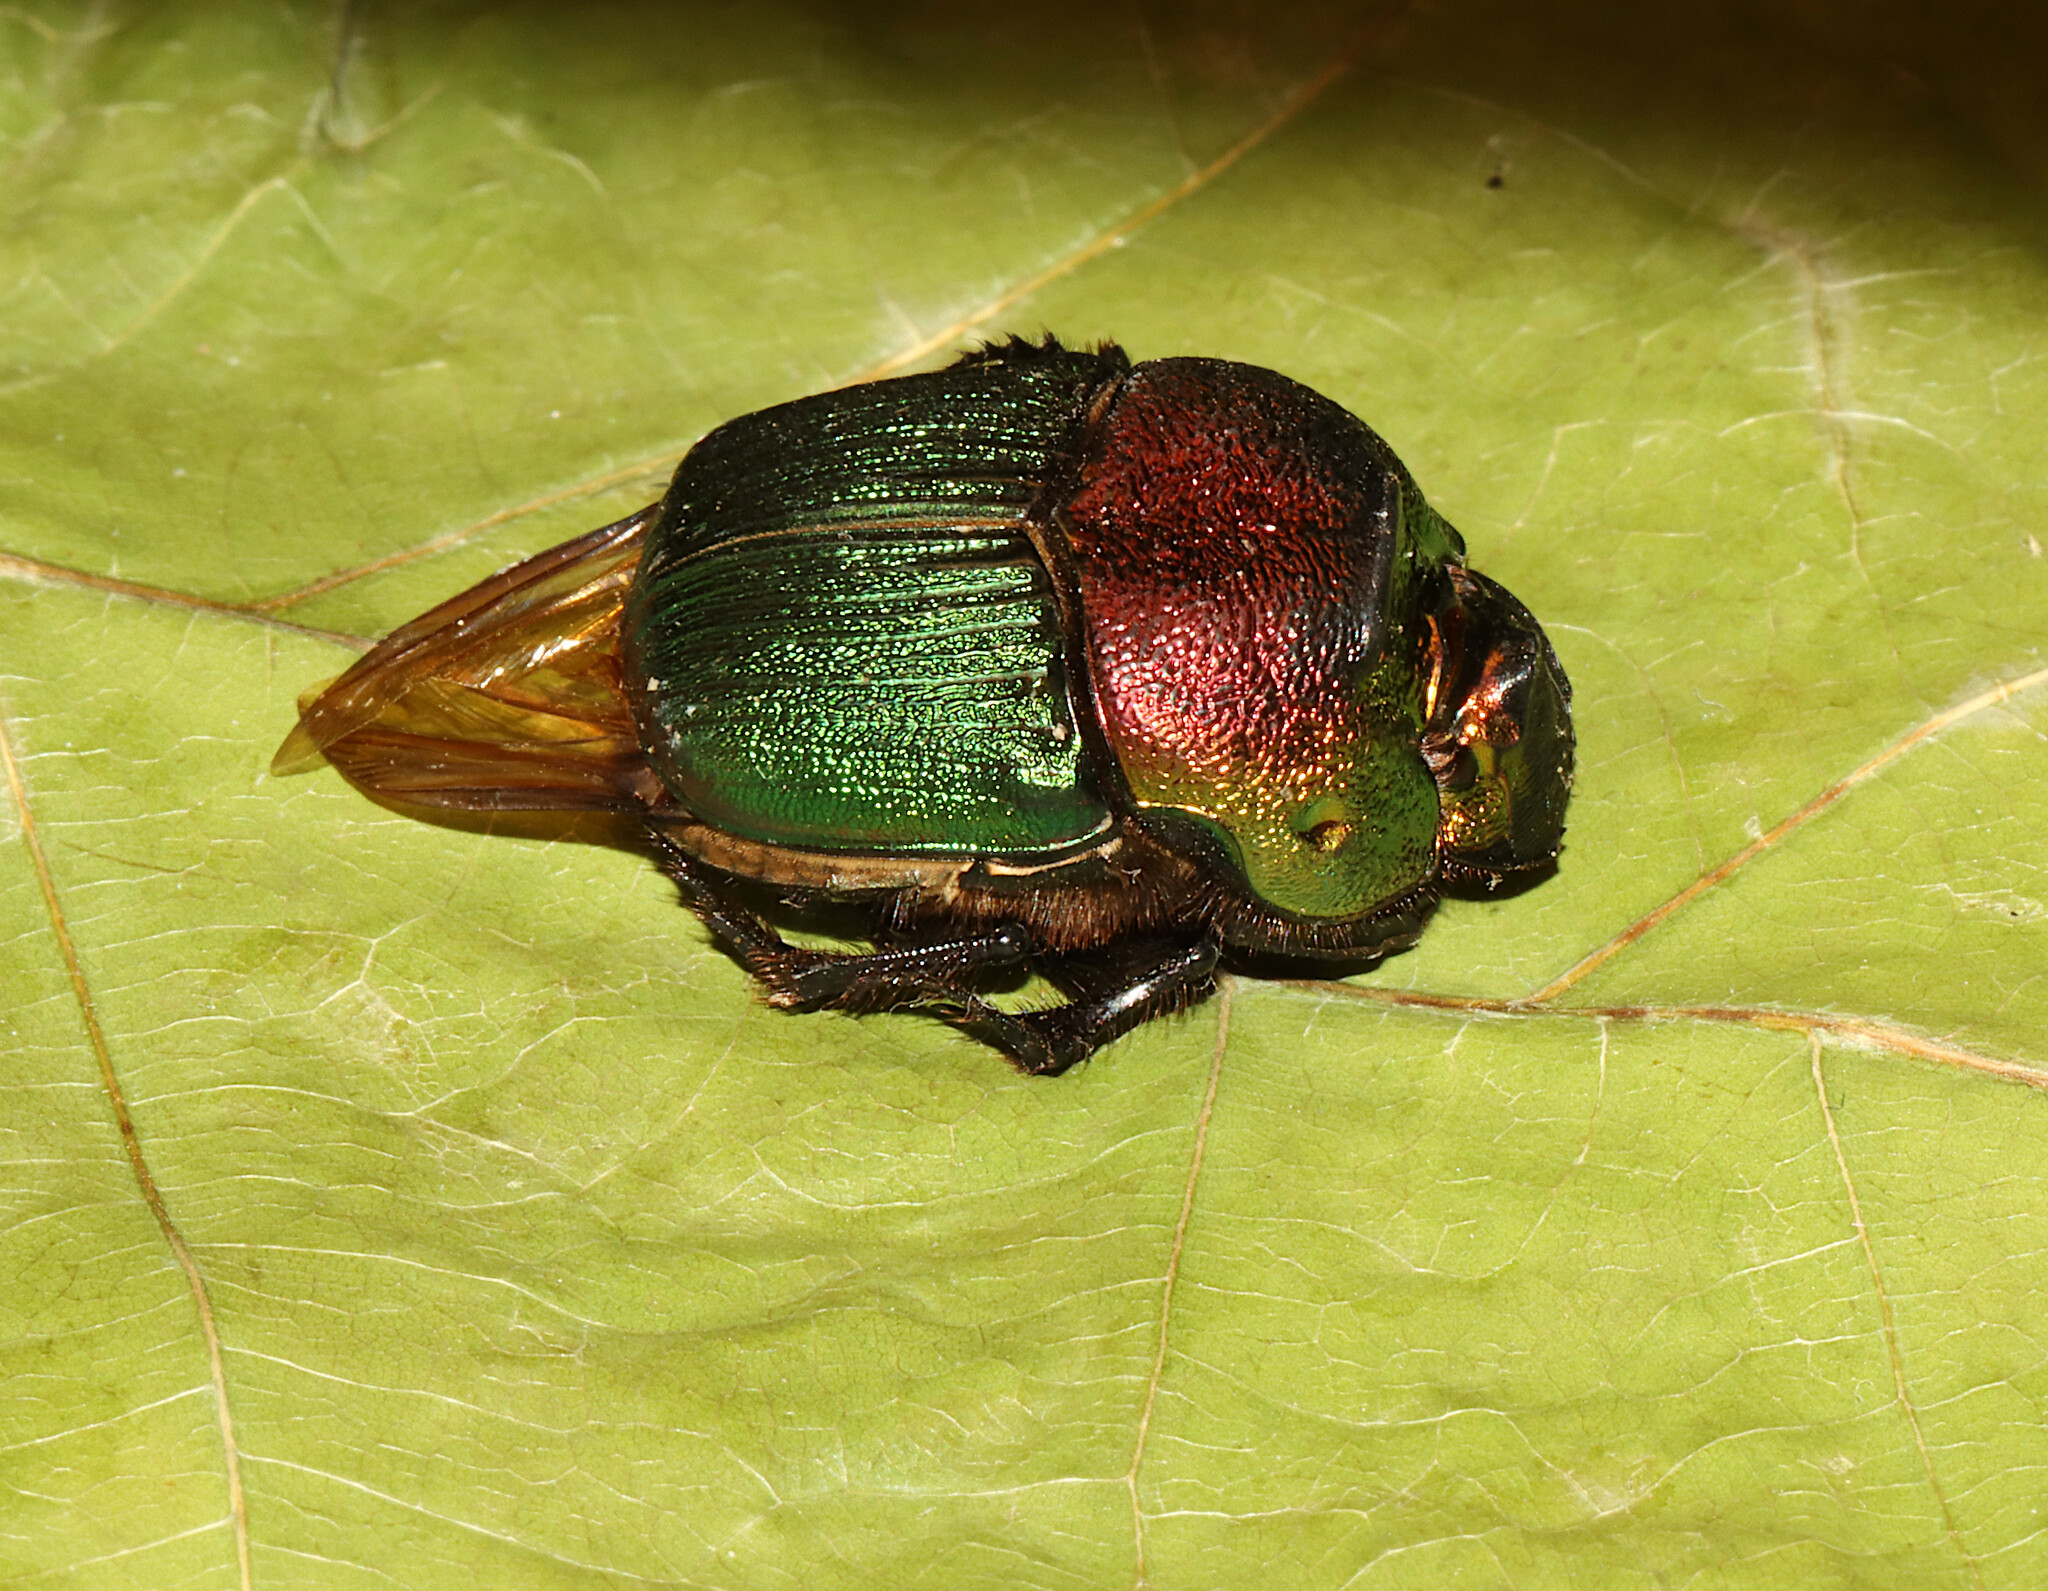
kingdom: Animalia
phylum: Arthropoda
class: Insecta
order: Coleoptera
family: Scarabaeidae
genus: Phanaeus
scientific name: Phanaeus vindex
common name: Rainbow scarab
